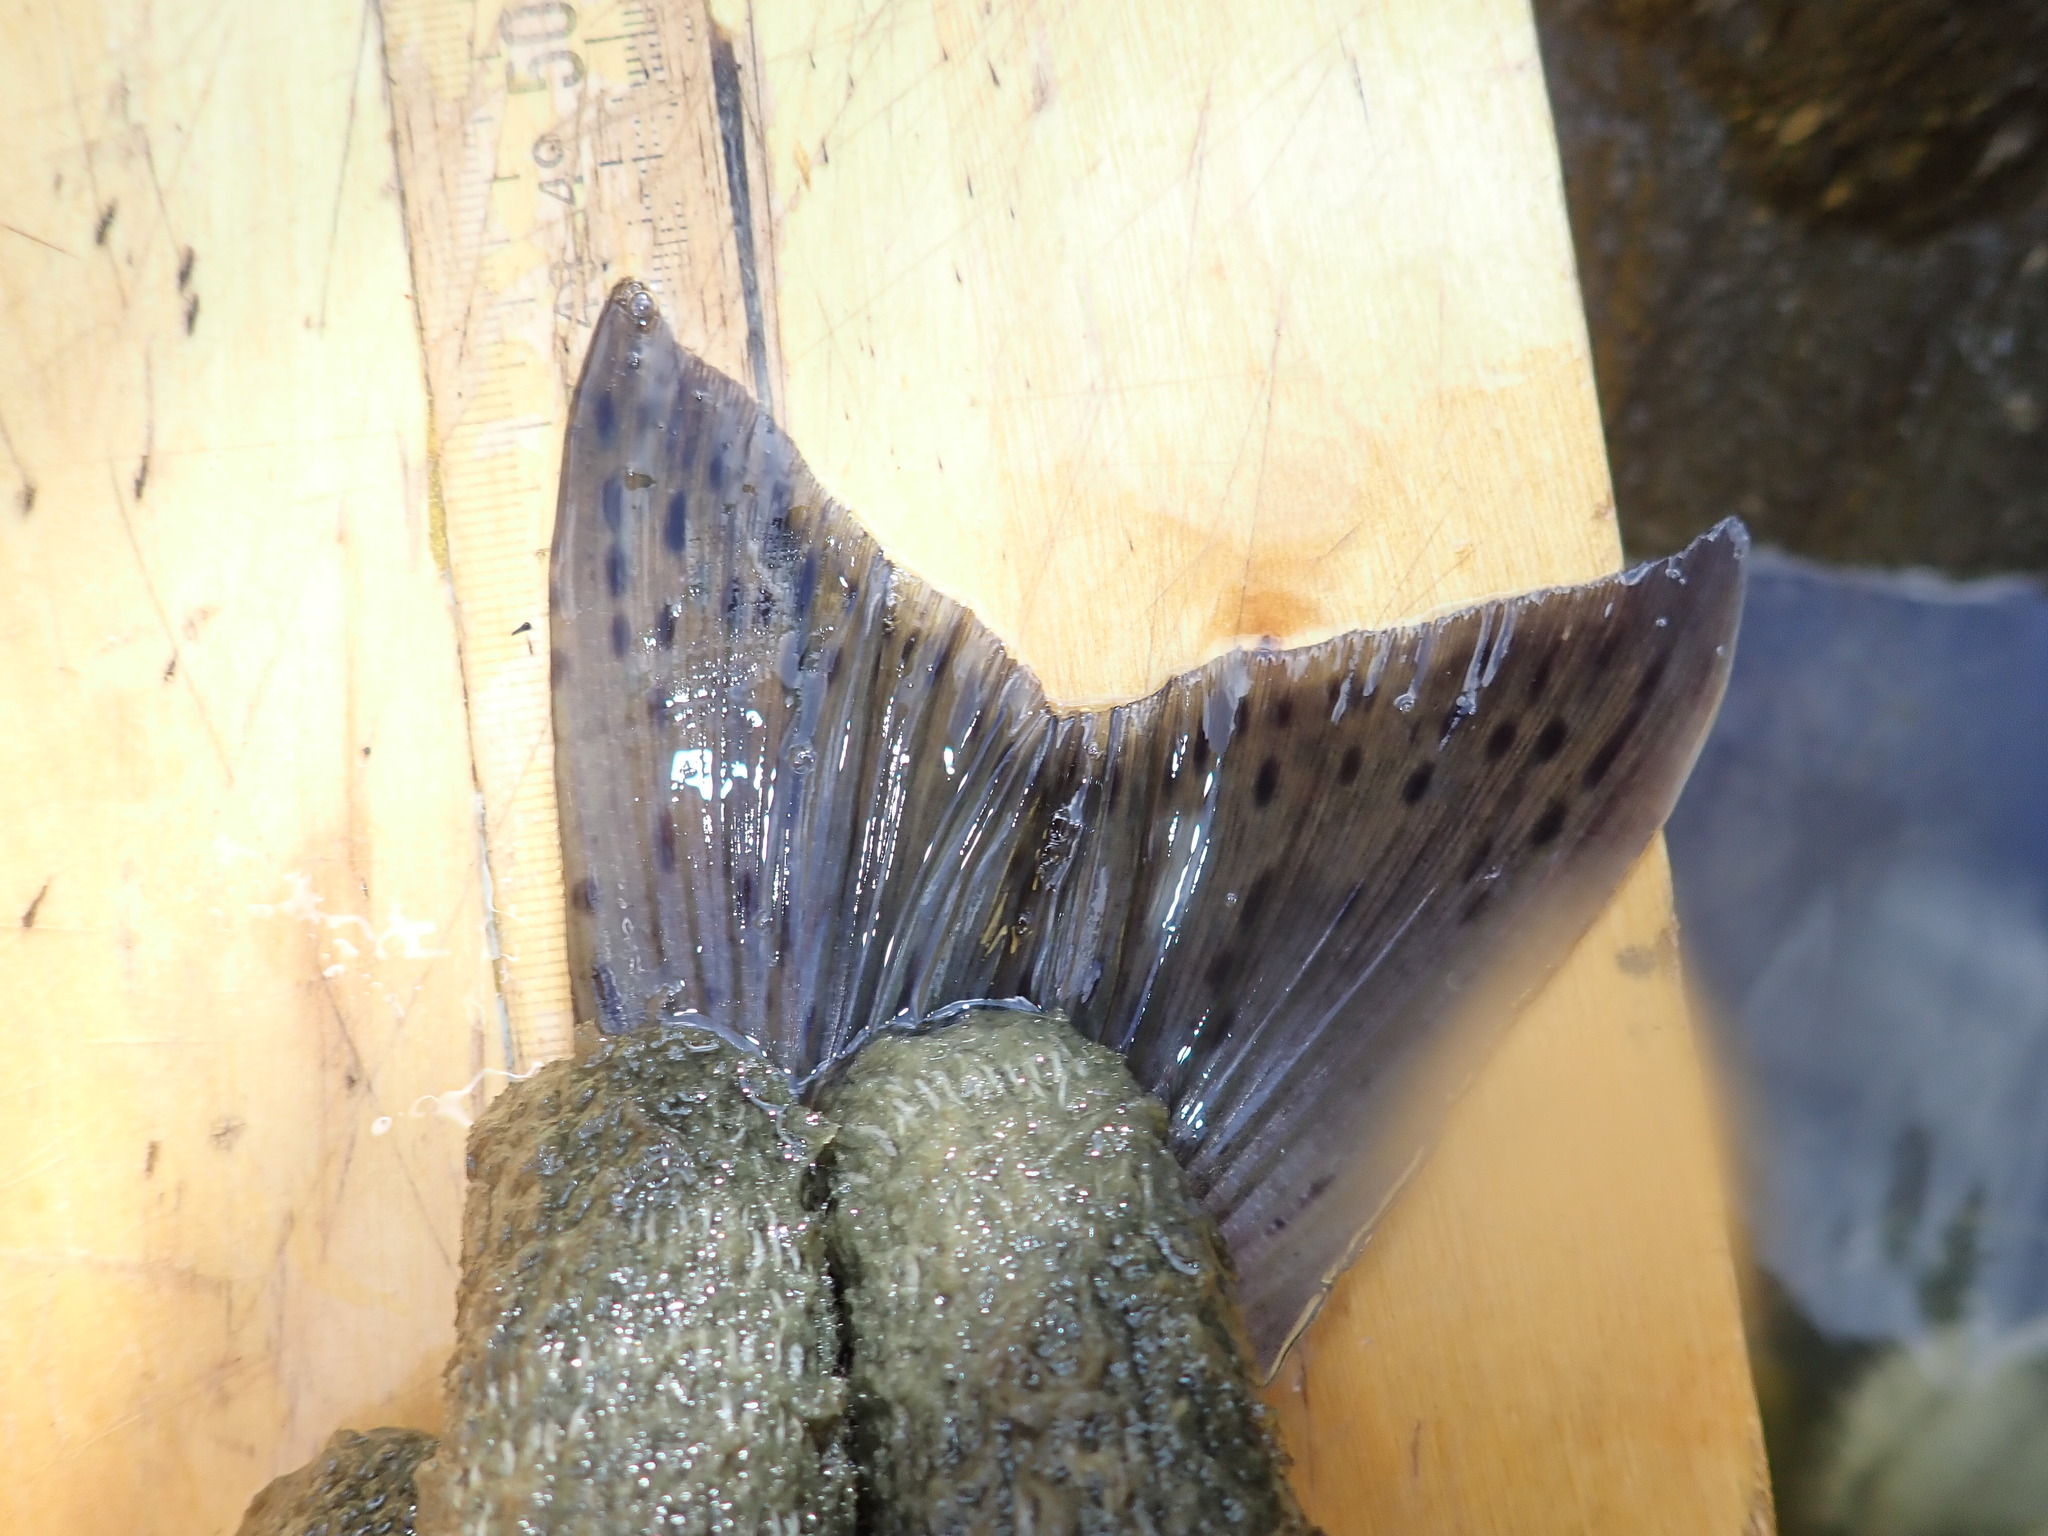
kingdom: Animalia
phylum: Chordata
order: Salmoniformes
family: Salmonidae
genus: Oncorhynchus
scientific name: Oncorhynchus kisutch
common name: Coho salmon
